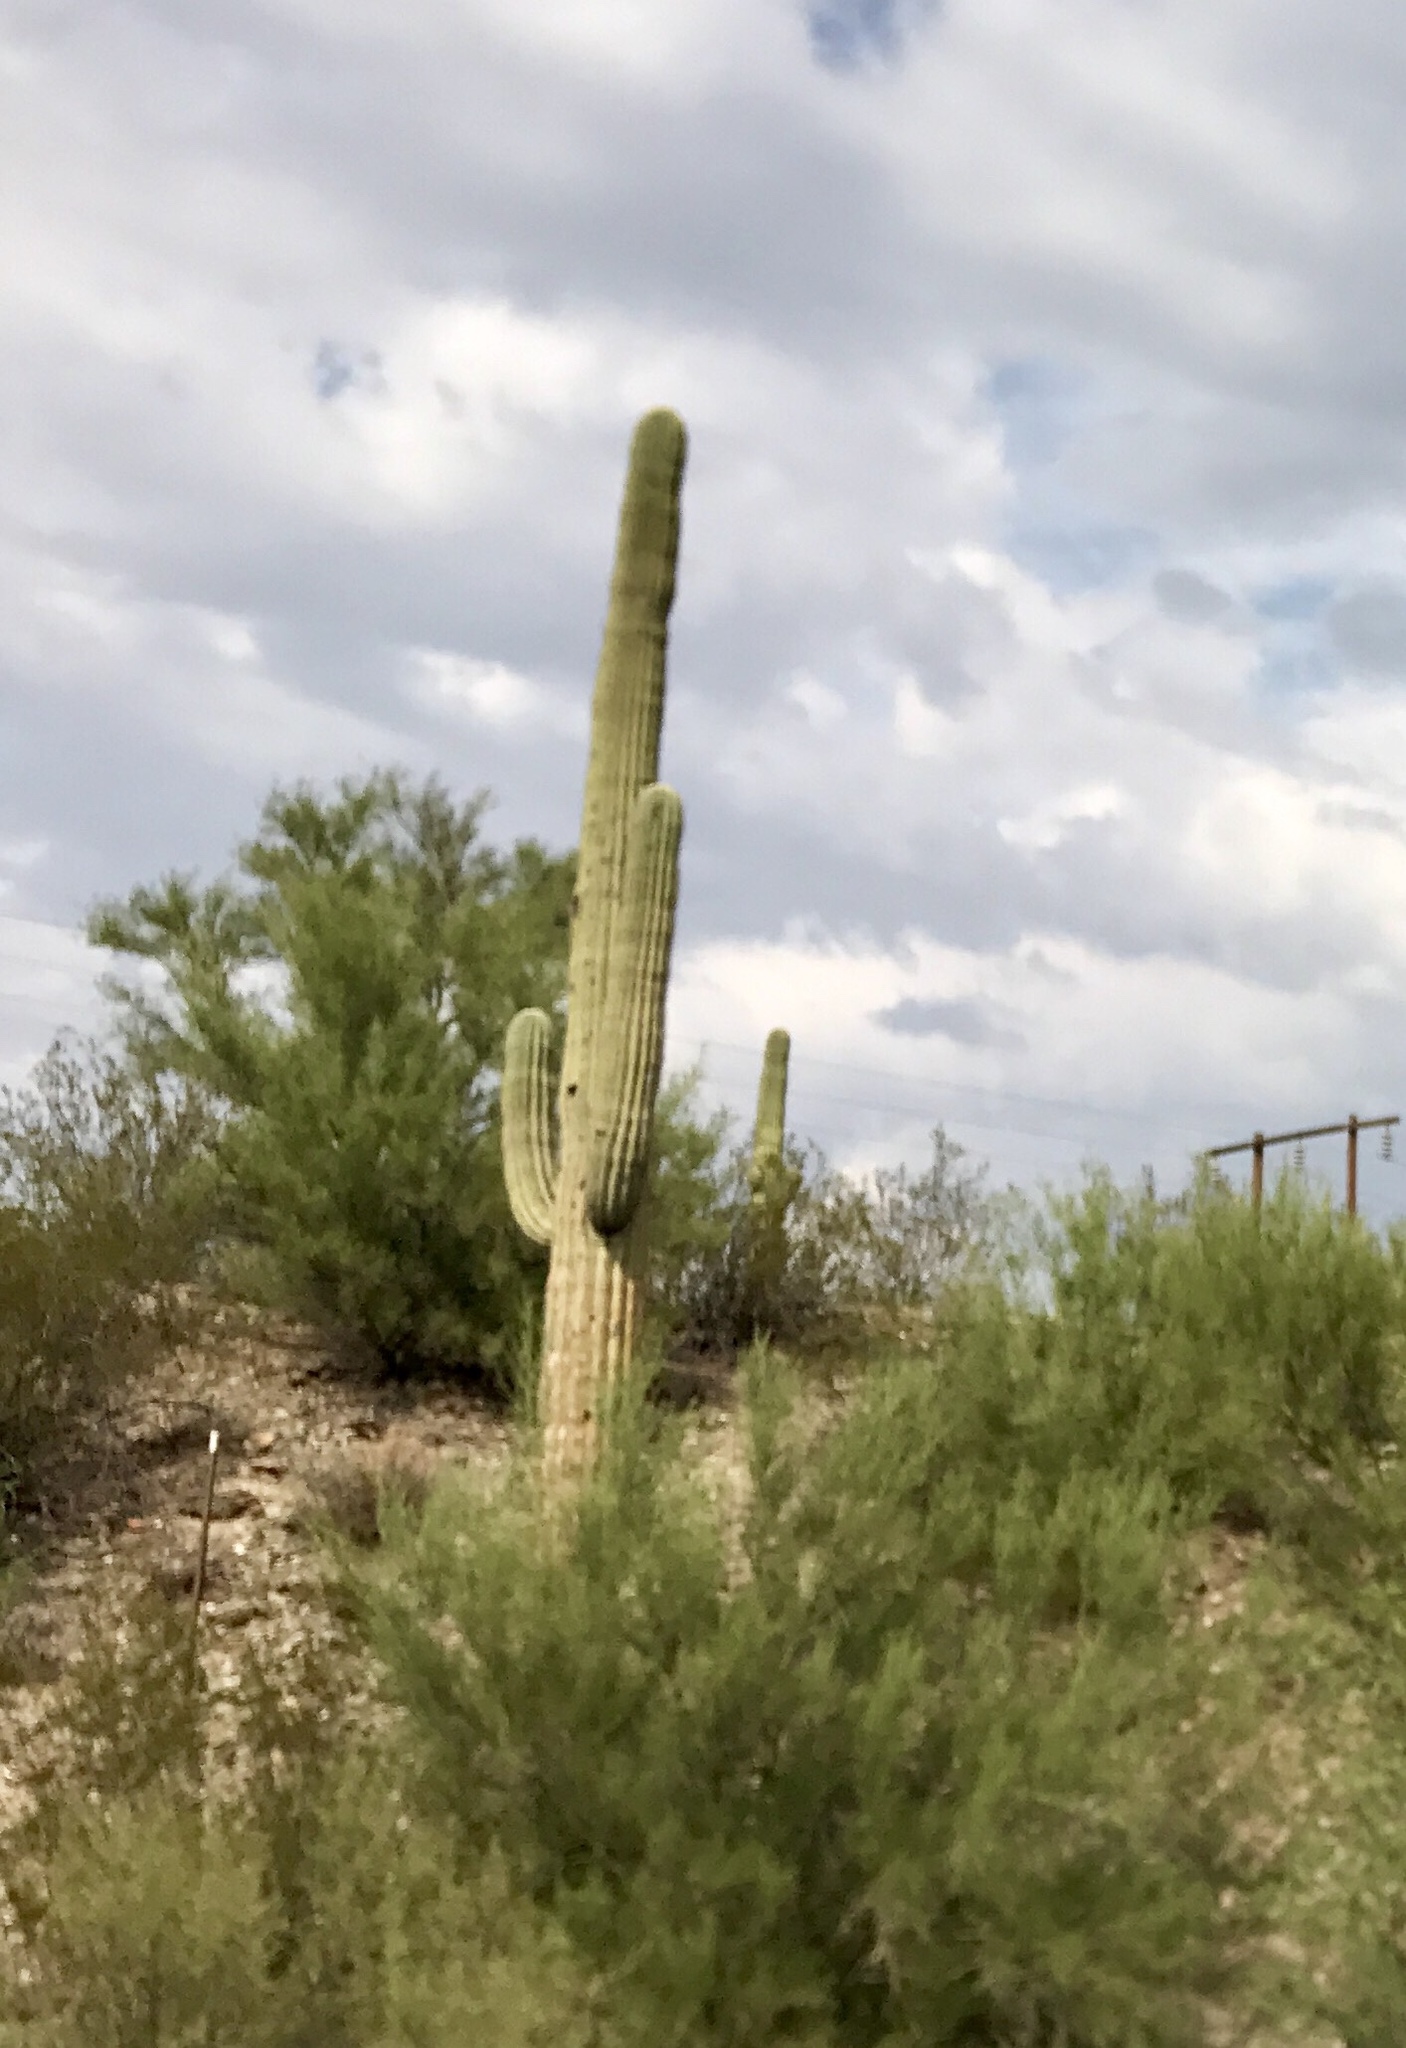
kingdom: Plantae
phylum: Tracheophyta
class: Magnoliopsida
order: Caryophyllales
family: Cactaceae
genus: Carnegiea
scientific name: Carnegiea gigantea
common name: Saguaro
